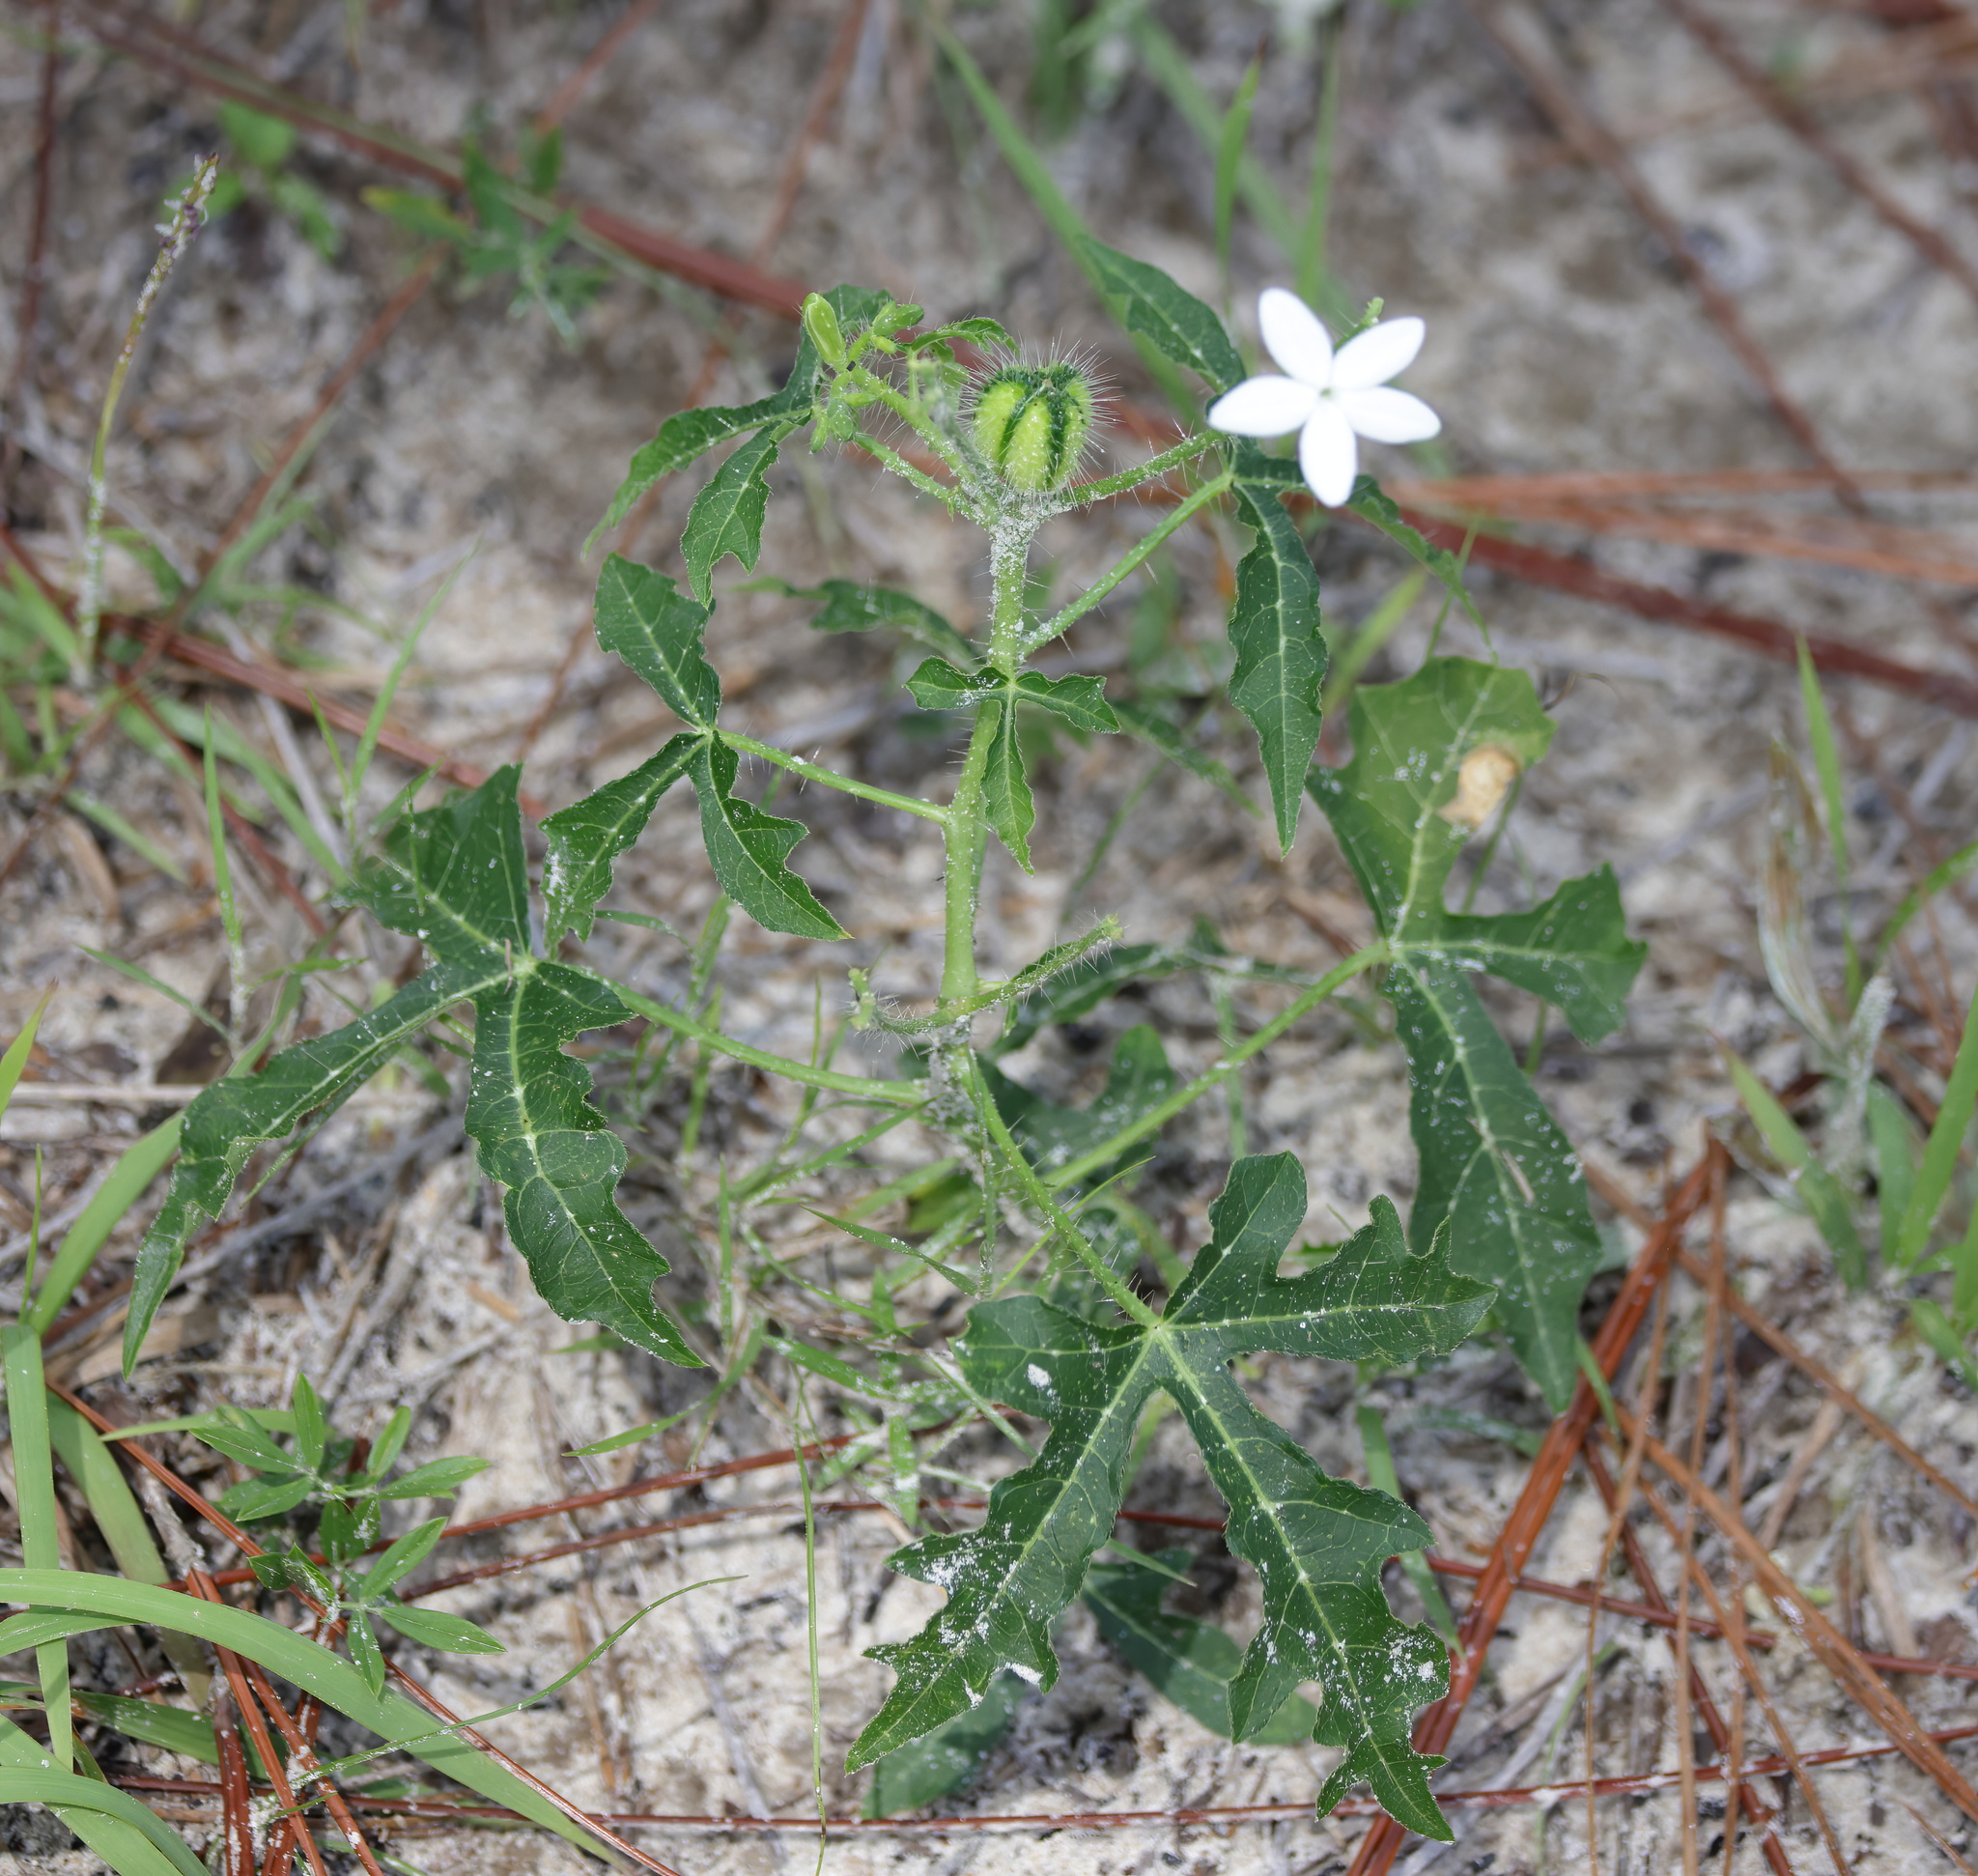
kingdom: Plantae
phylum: Tracheophyta
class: Magnoliopsida
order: Malpighiales
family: Euphorbiaceae
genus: Cnidoscolus
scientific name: Cnidoscolus stimulosus
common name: Bull-nettle
